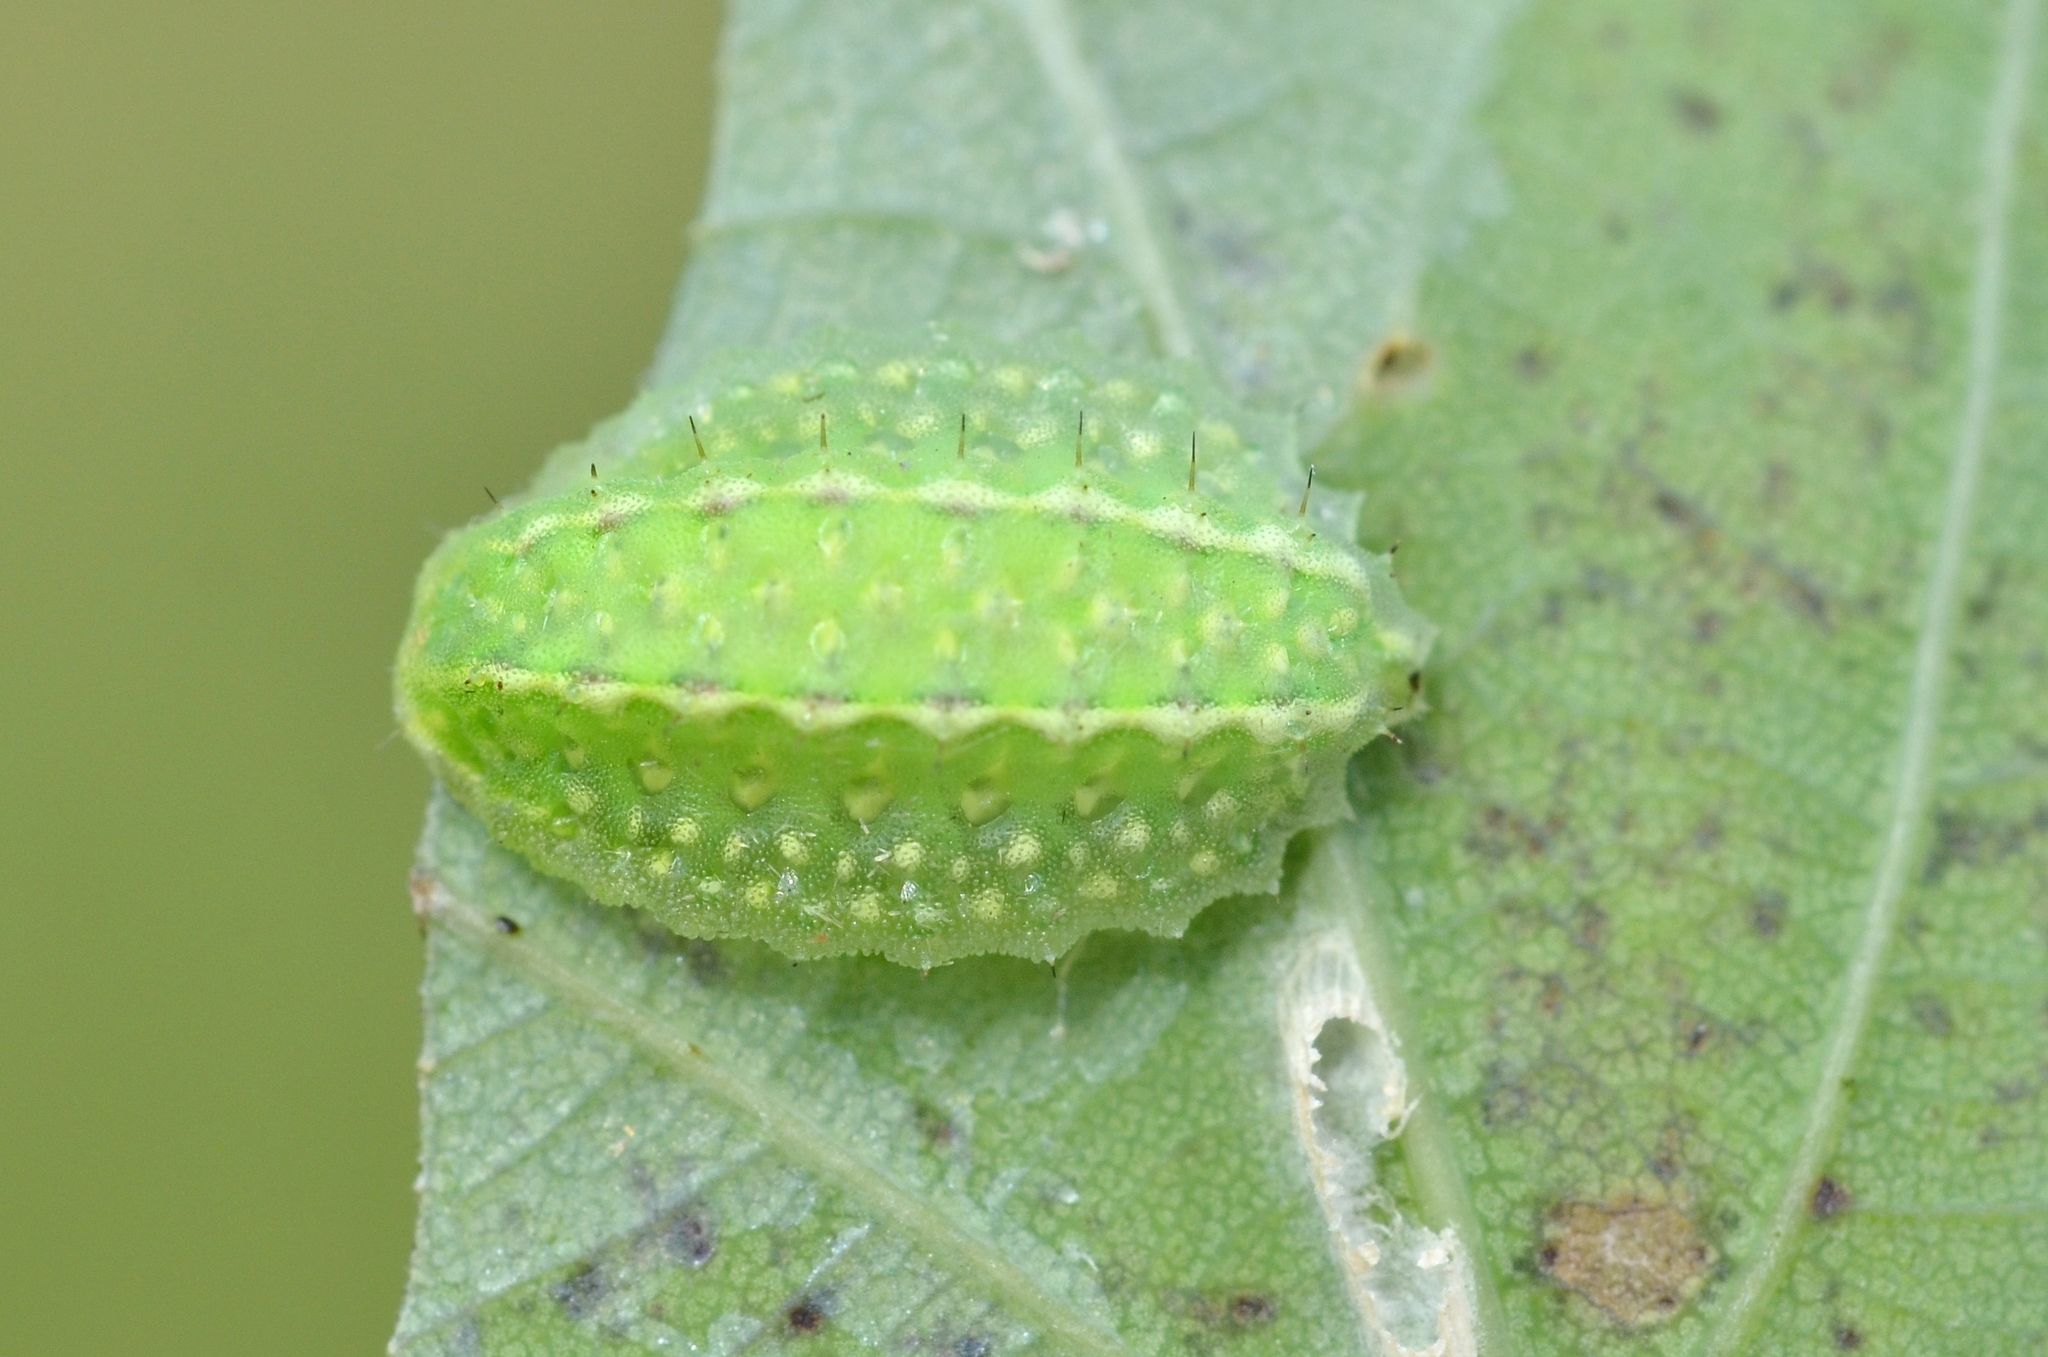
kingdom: Animalia
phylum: Arthropoda
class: Insecta
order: Lepidoptera
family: Limacodidae
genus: Apoda
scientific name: Apoda limacodes
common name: Festoon
